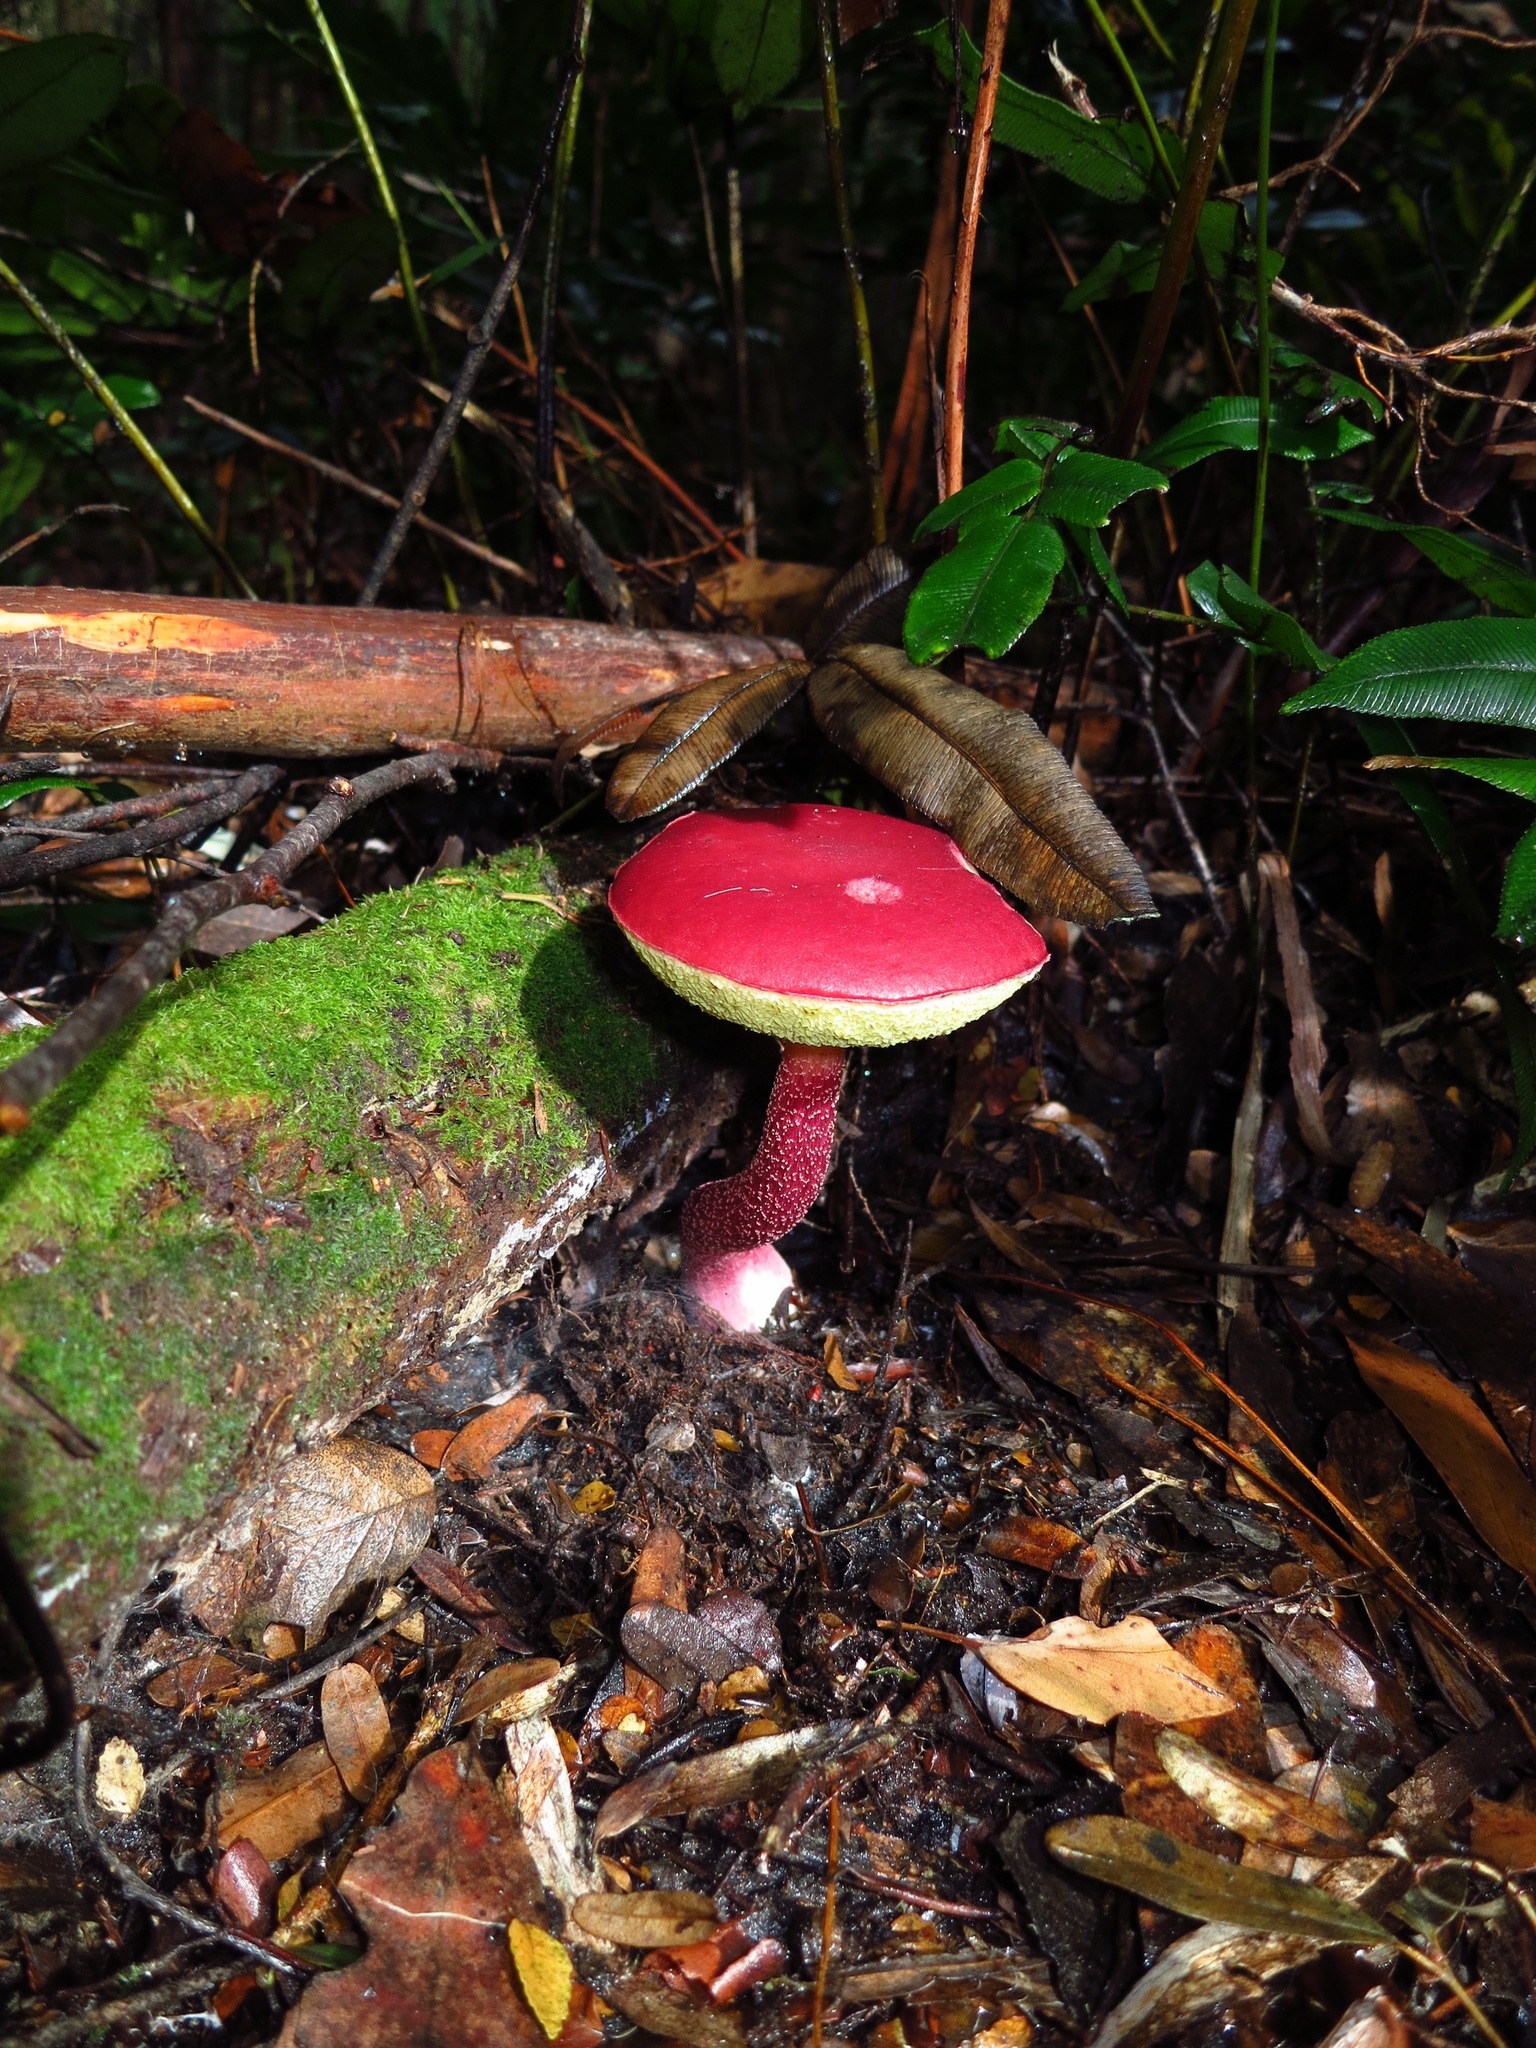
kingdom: Fungi
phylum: Basidiomycota
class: Agaricomycetes
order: Boletales
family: Boletaceae
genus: Boletellus
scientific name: Boletellus obscurecoccineus
